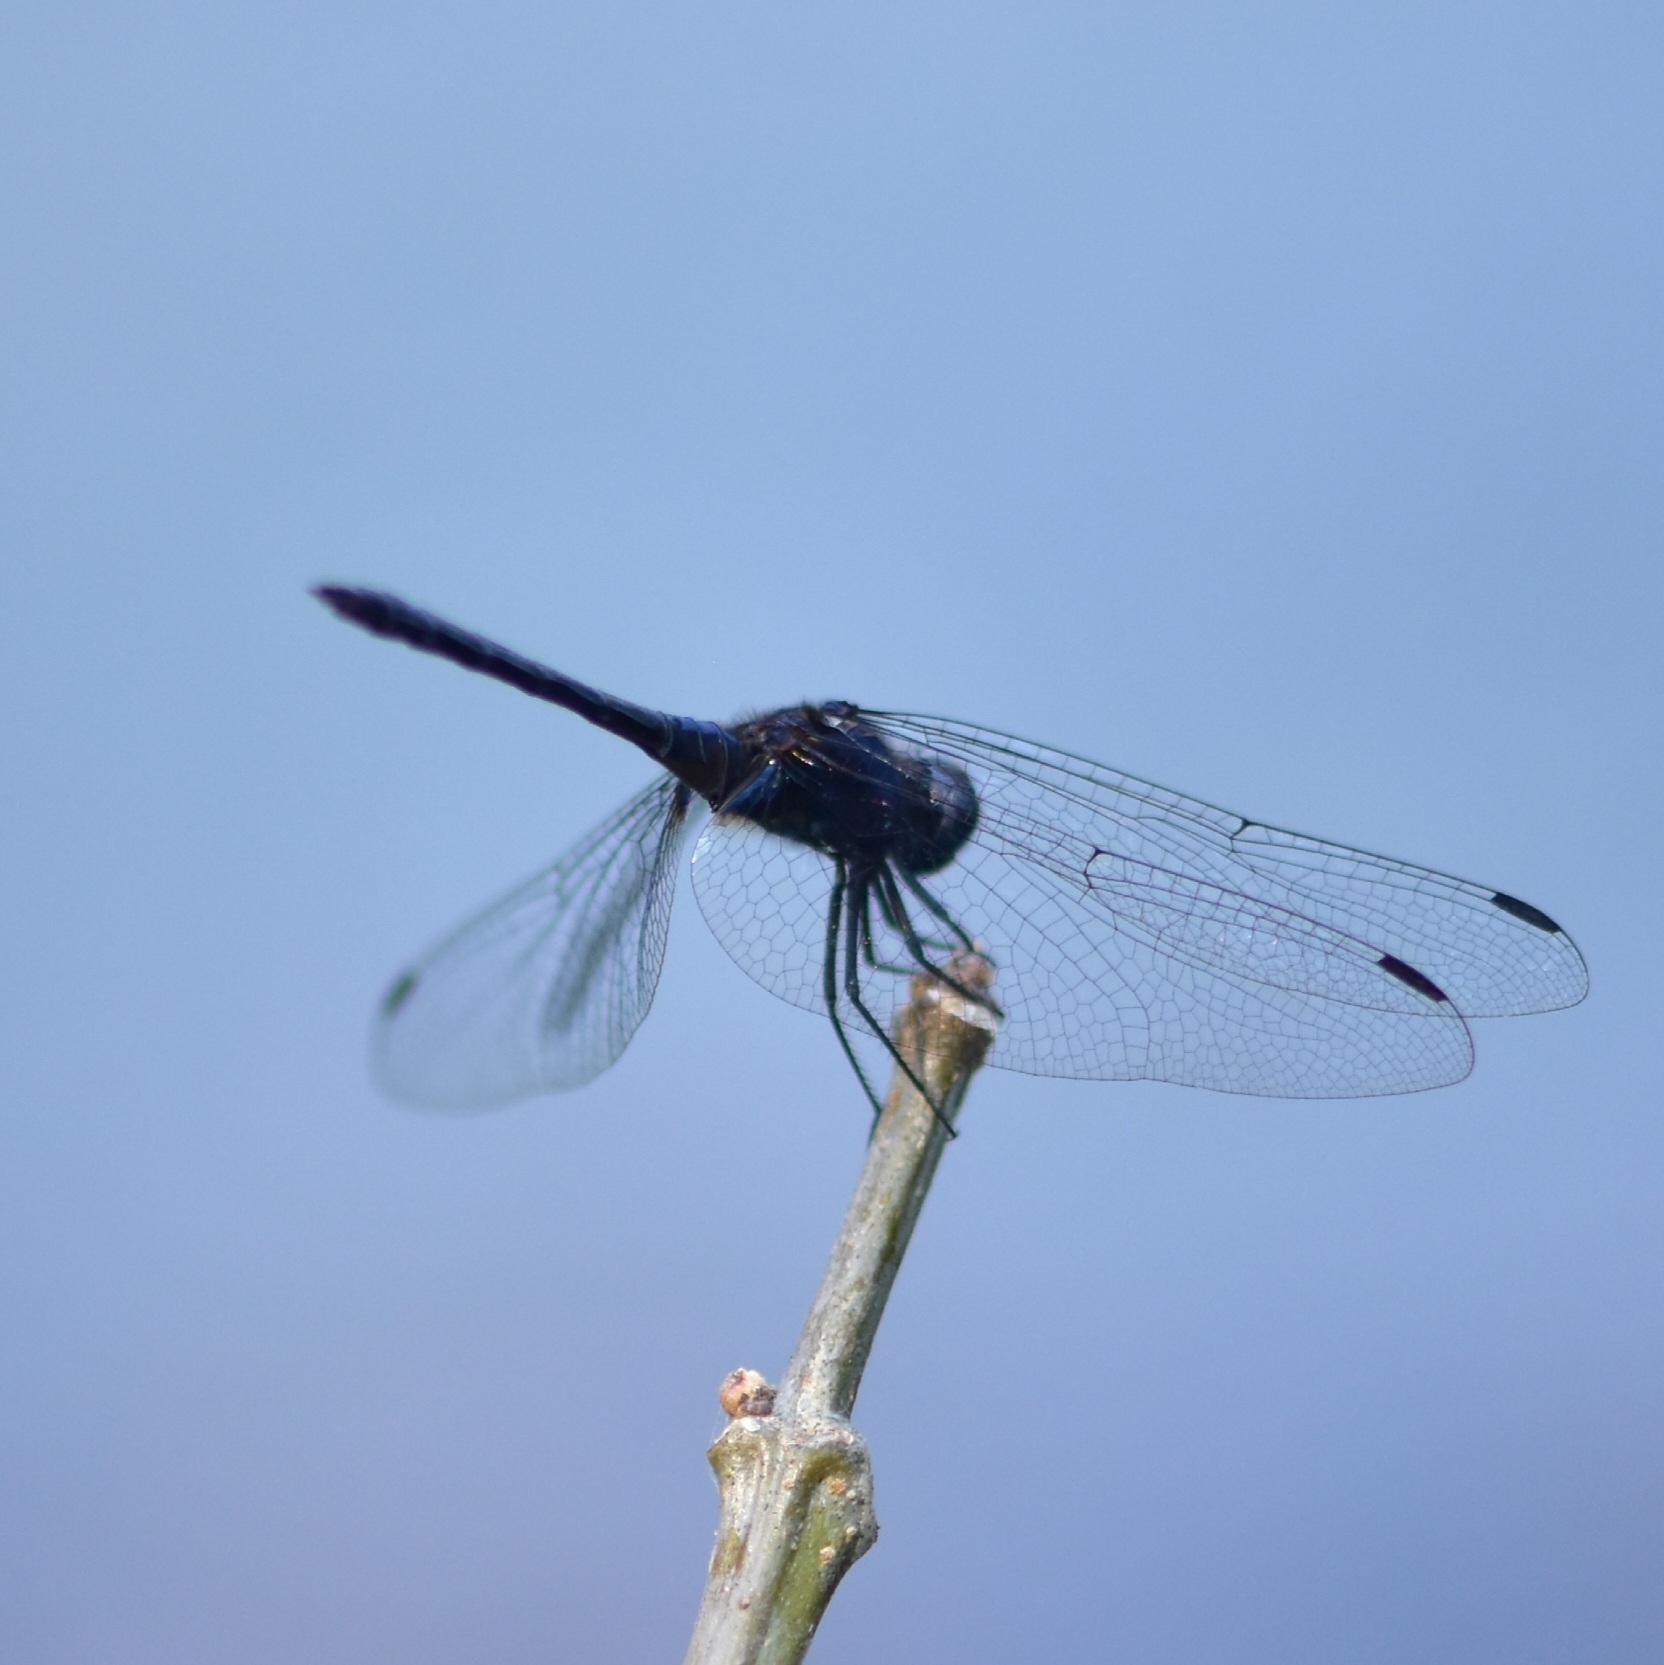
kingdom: Animalia
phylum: Arthropoda
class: Insecta
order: Odonata
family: Libellulidae
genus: Trithemis
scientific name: Trithemis festiva
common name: Indigo dropwing
